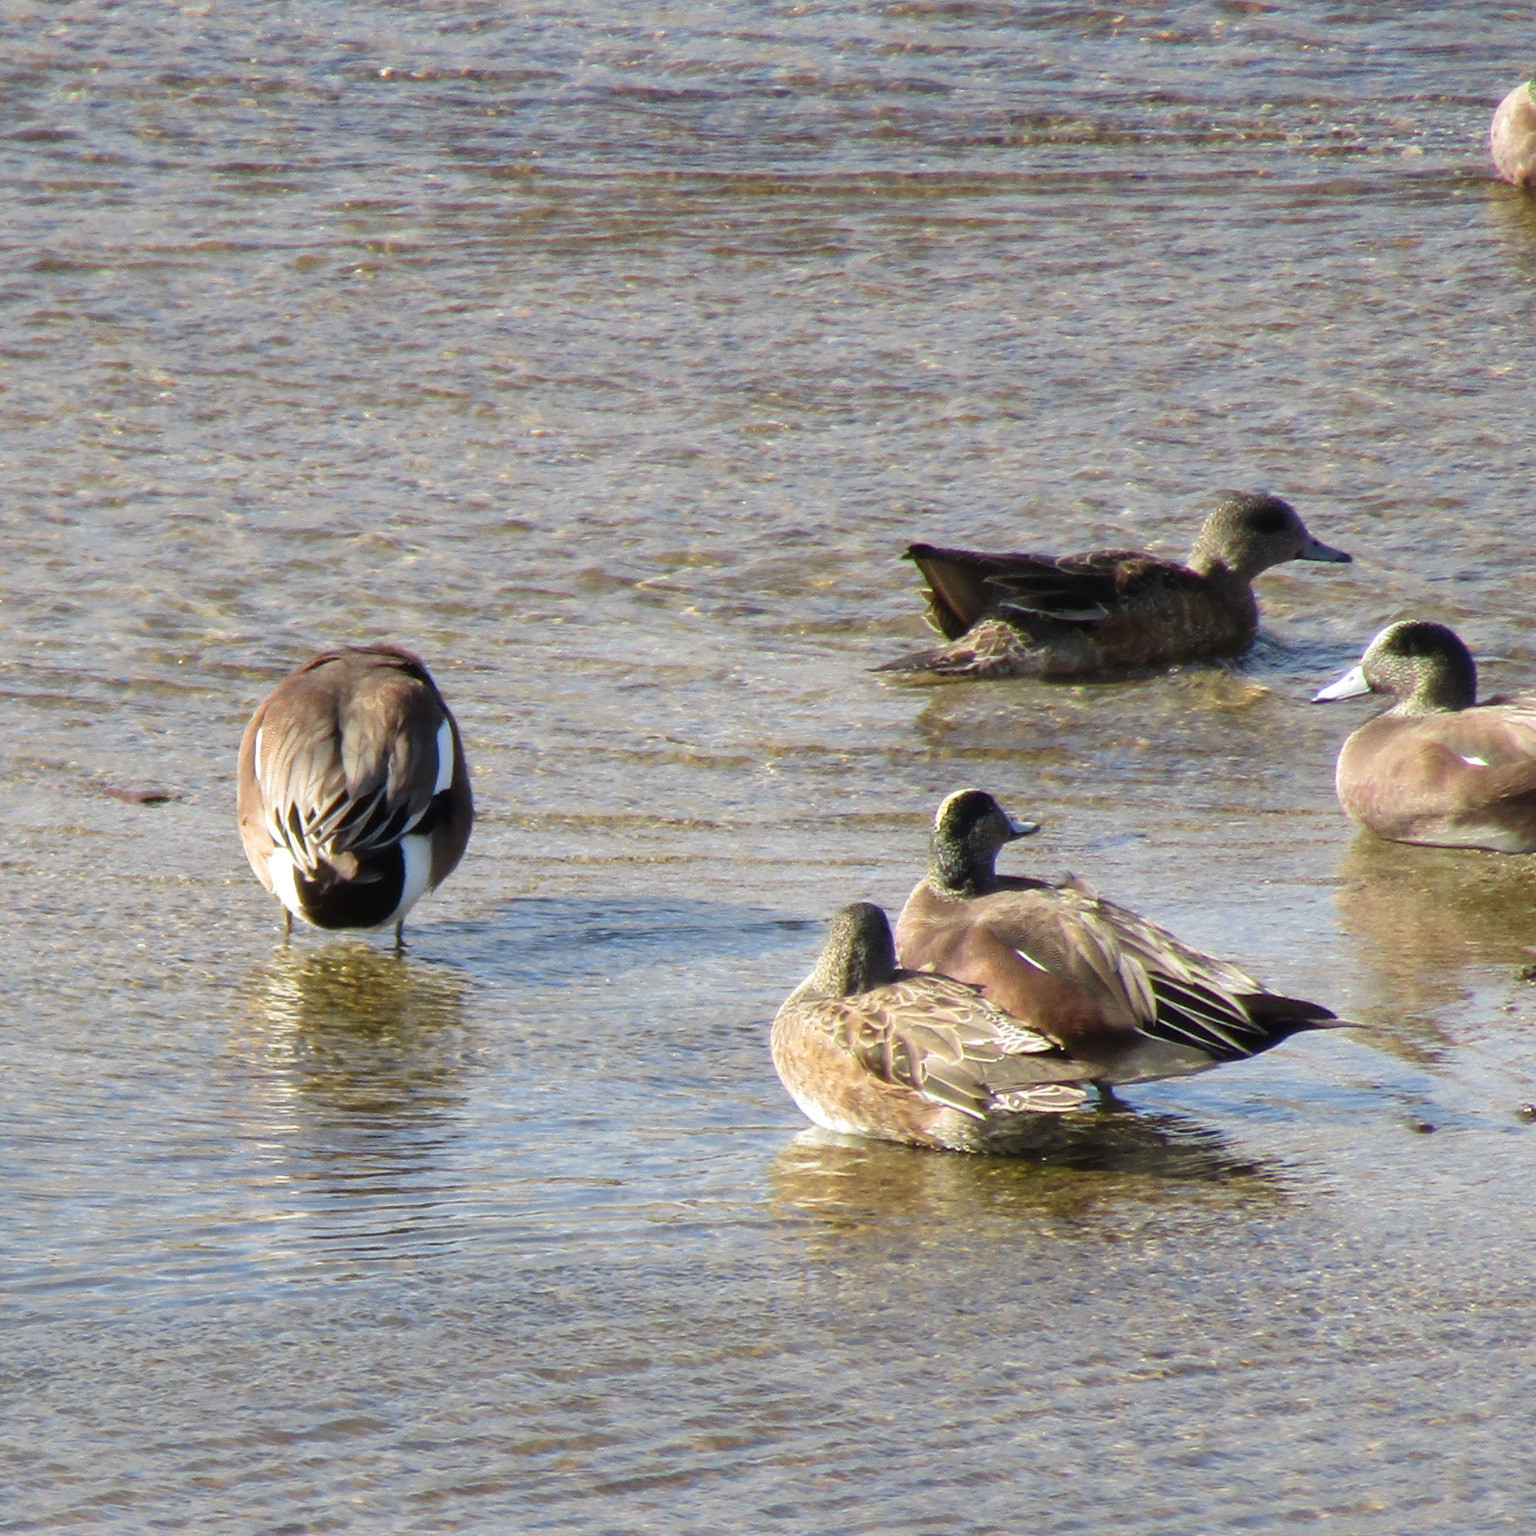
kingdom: Animalia
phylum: Chordata
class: Aves
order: Anseriformes
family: Anatidae
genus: Mareca
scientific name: Mareca americana
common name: American wigeon
